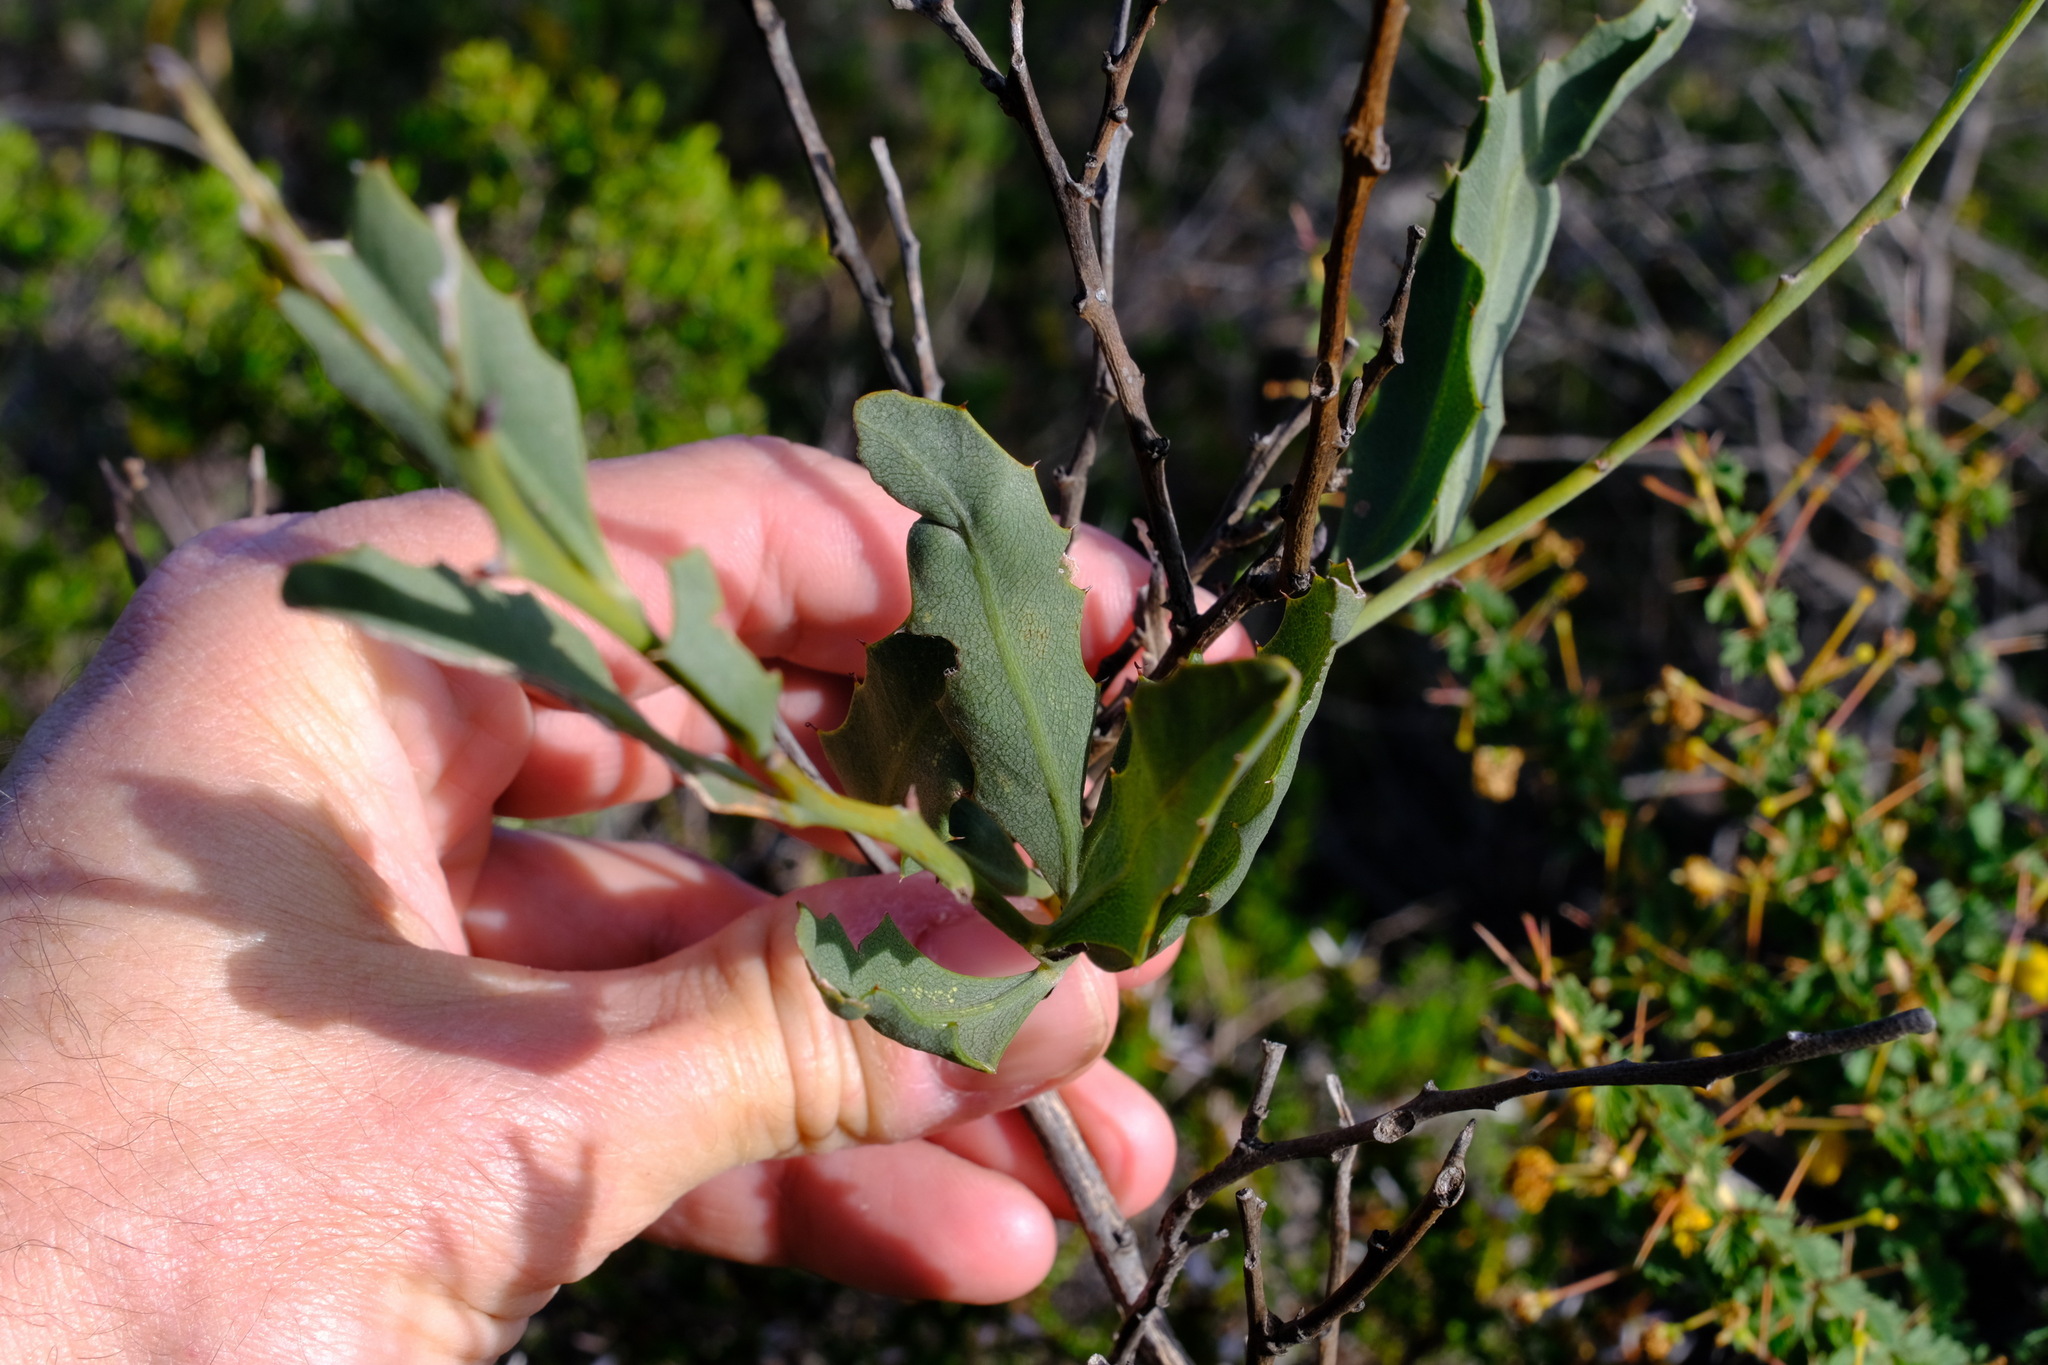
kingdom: Plantae
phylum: Tracheophyta
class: Magnoliopsida
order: Fabales
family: Fabaceae
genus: Jacksonia
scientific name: Jacksonia floribunda
